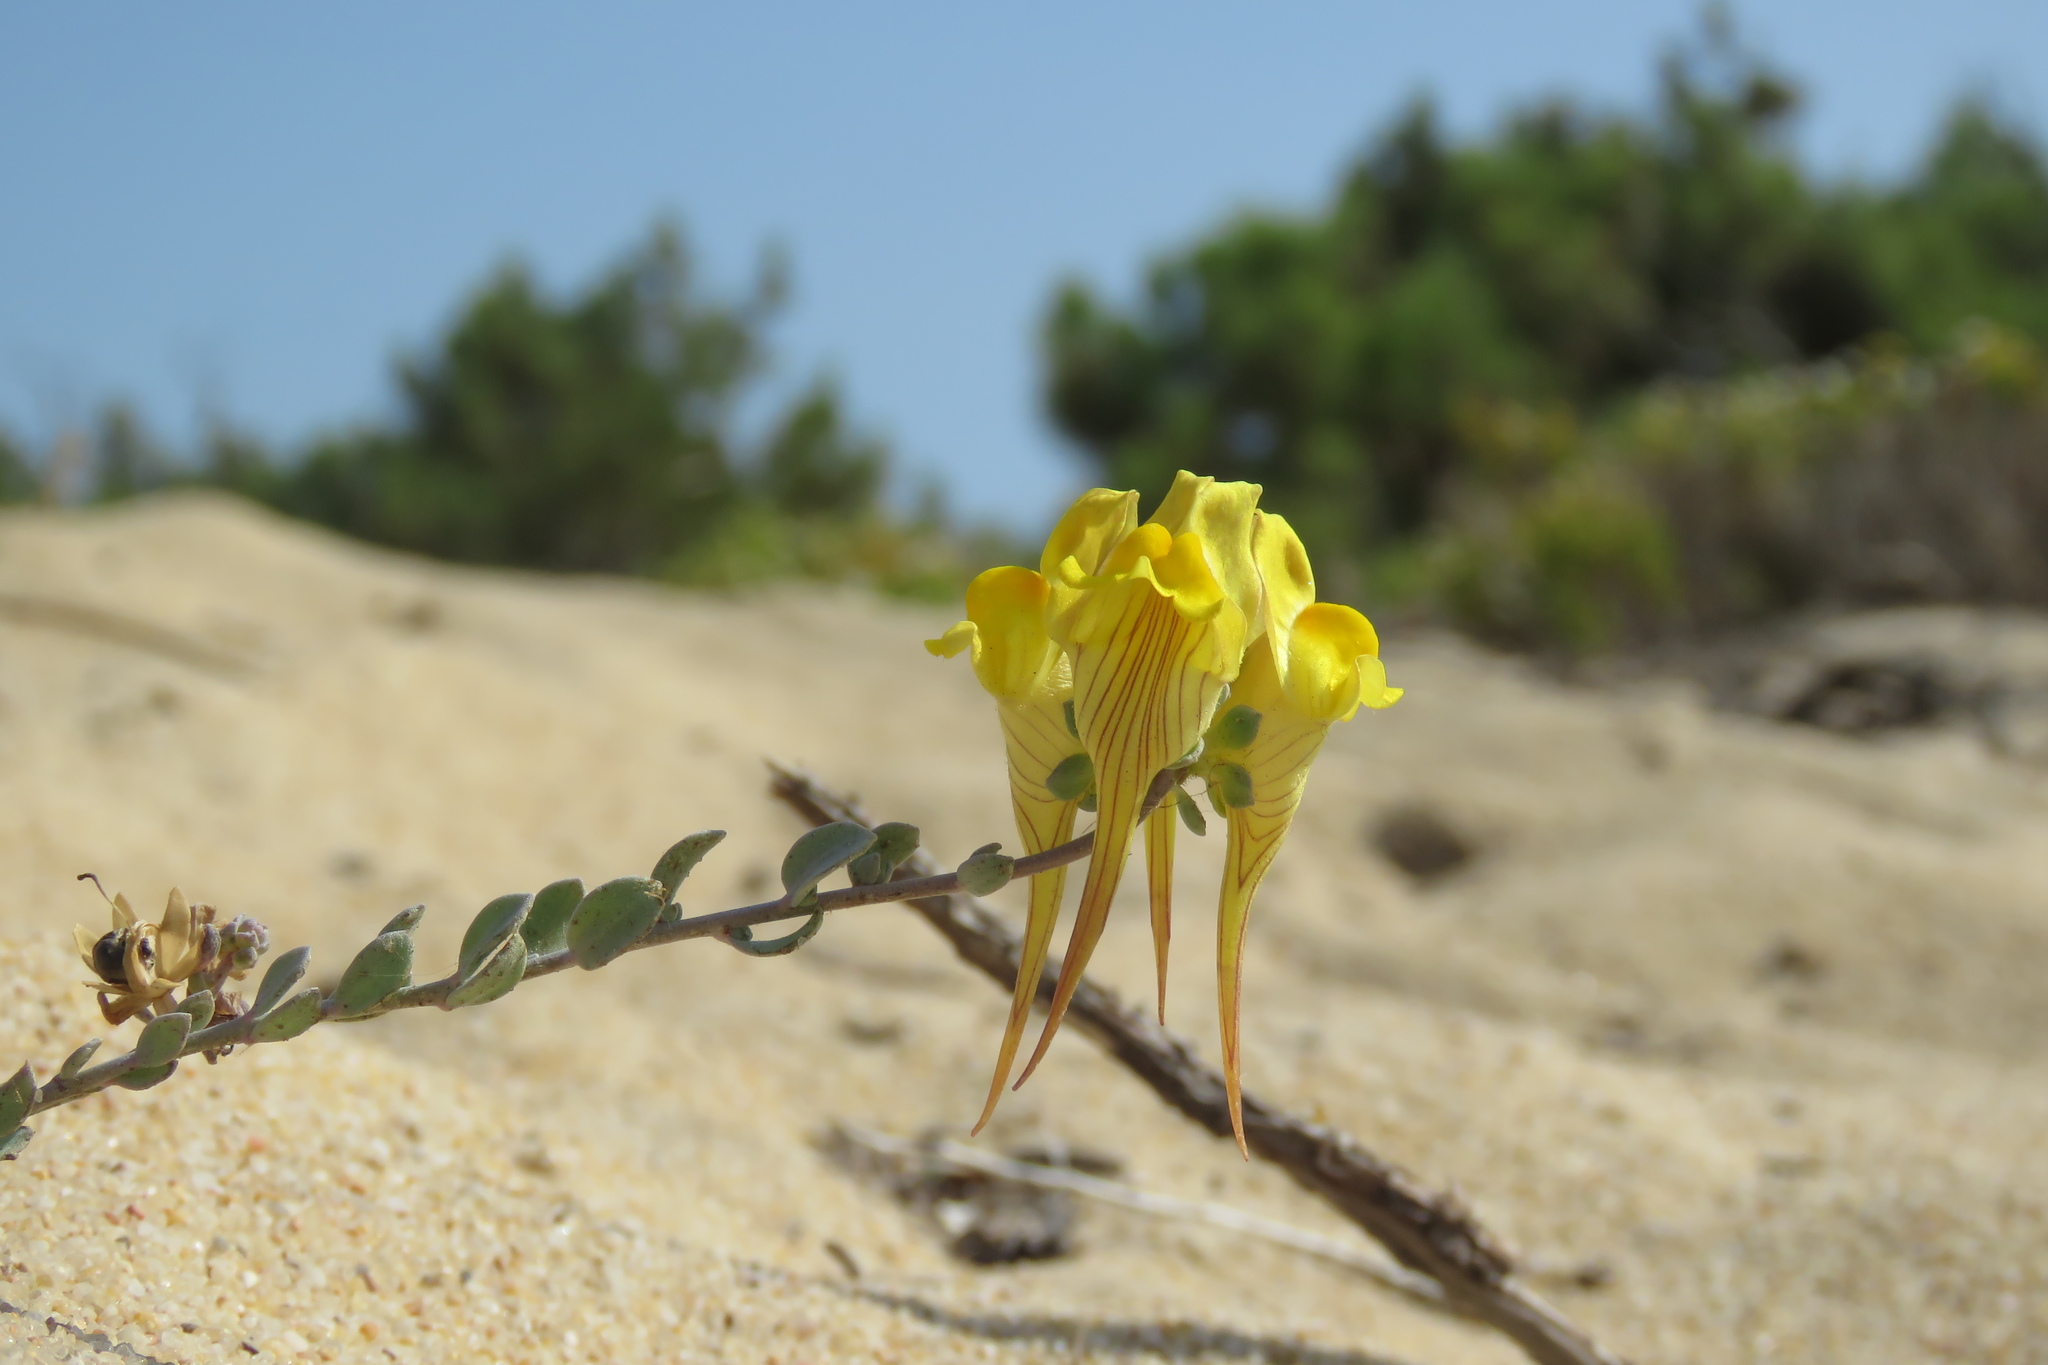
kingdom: Plantae
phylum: Tracheophyta
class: Magnoliopsida
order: Lamiales
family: Plantaginaceae
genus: Linaria
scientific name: Linaria polygalifolia
